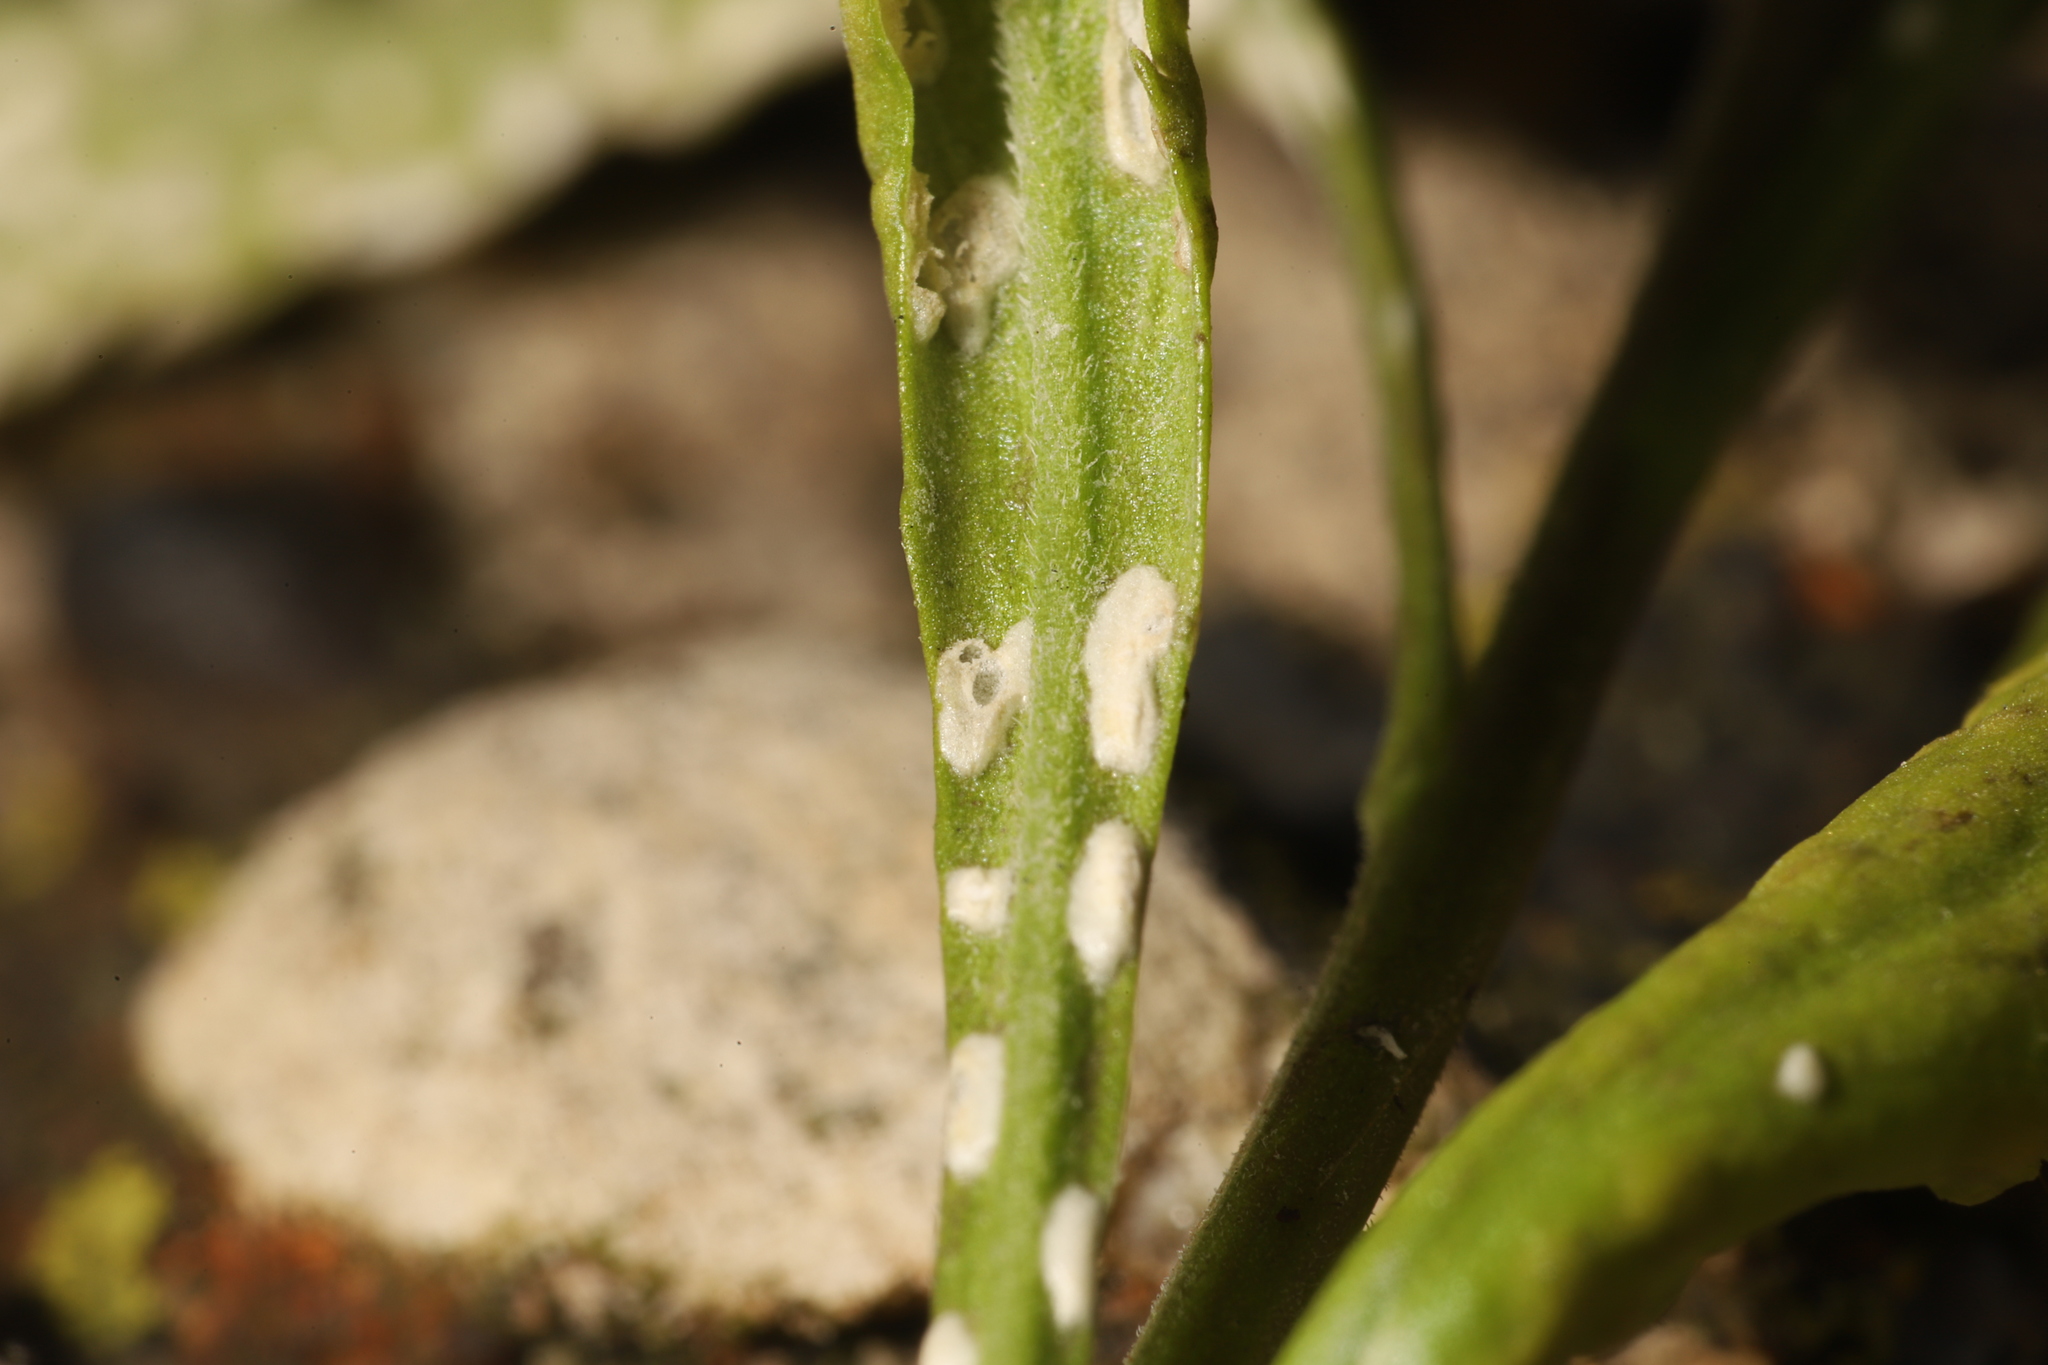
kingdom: Chromista
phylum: Oomycota
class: Peronosporea
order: Albuginales
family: Albuginaceae
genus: Albugo
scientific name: Albugo candida
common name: Crucifer white blister
